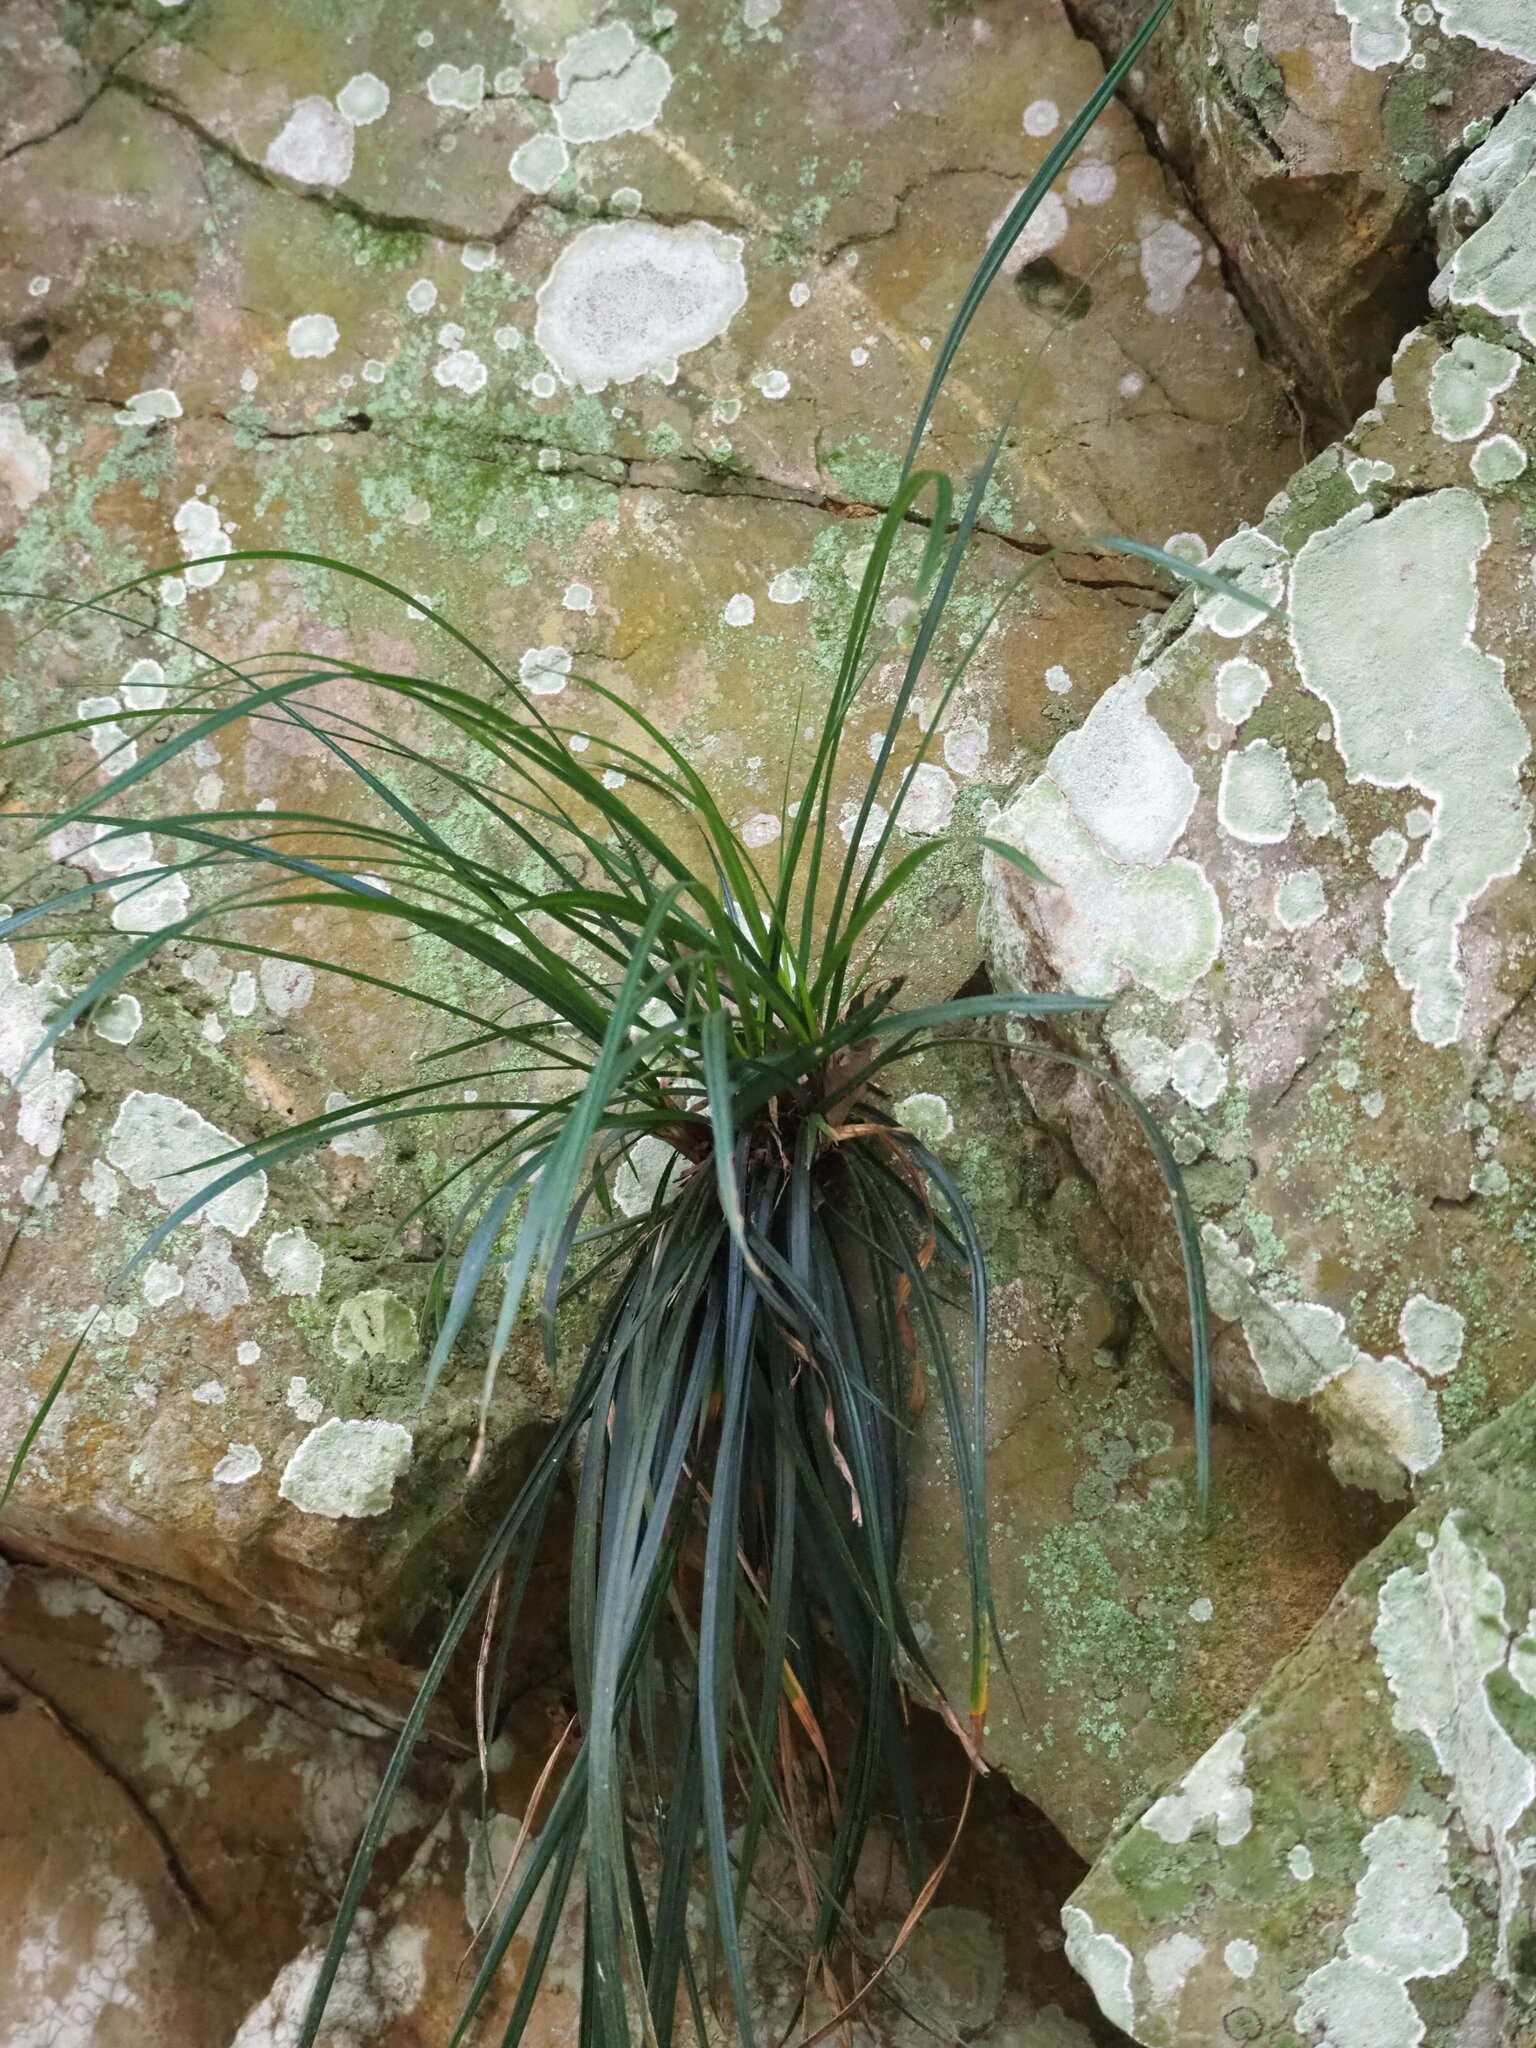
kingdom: Plantae
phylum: Tracheophyta
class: Liliopsida
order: Poales
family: Cyperaceae
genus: Carex
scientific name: Carex sociata
